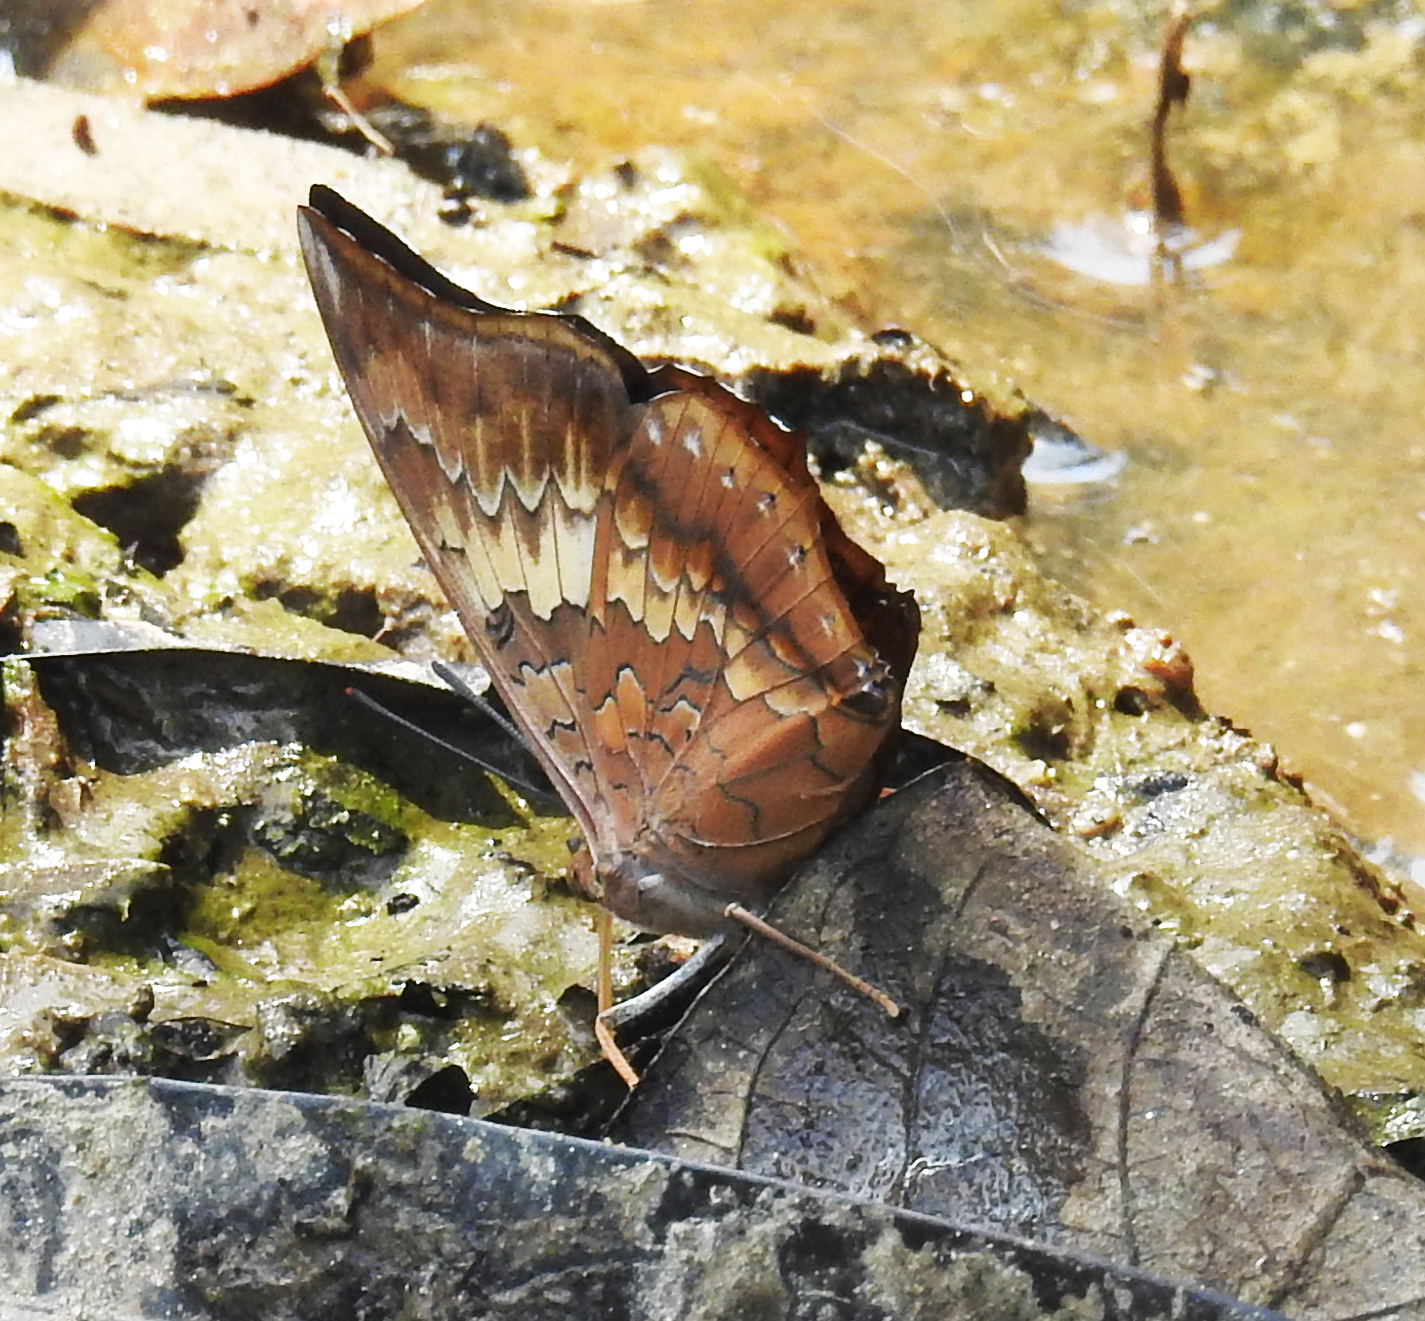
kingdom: Animalia
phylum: Arthropoda
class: Insecta
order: Lepidoptera
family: Nymphalidae
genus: Charaxes
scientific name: Charaxes bernardus
